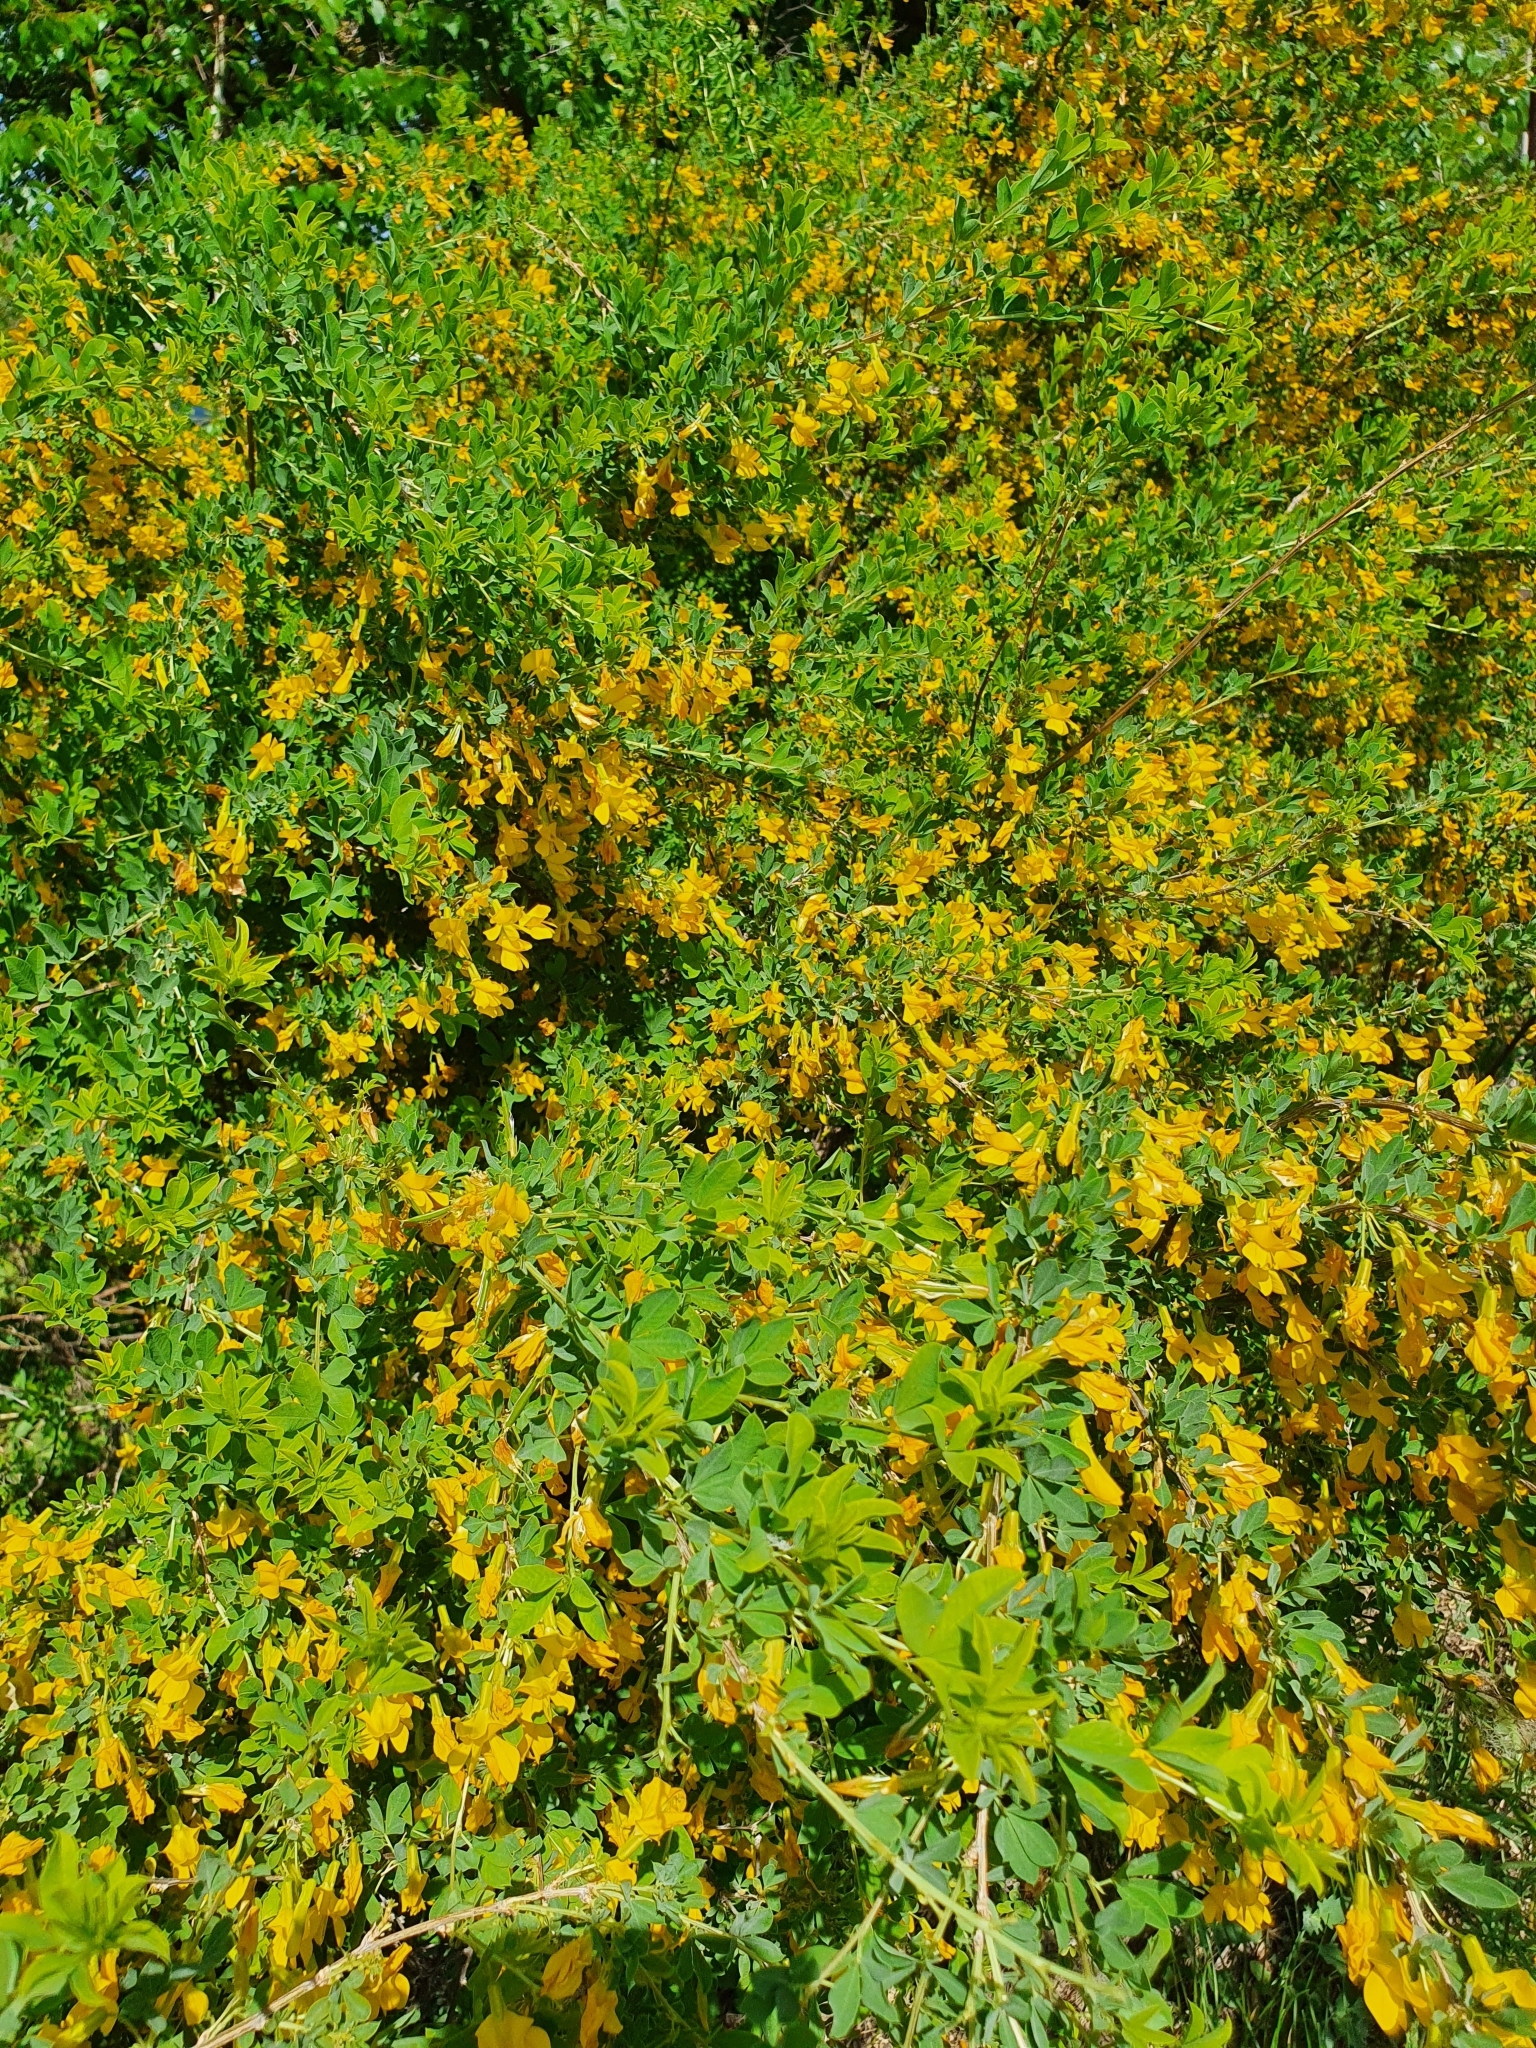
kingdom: Plantae
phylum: Tracheophyta
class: Magnoliopsida
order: Fabales
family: Fabaceae
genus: Caragana
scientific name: Caragana frutex
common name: Russian peashrub
